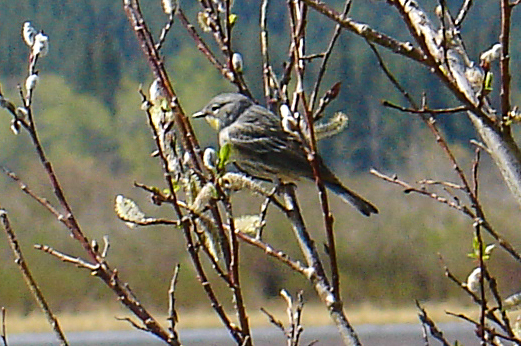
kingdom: Animalia
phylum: Chordata
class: Aves
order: Passeriformes
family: Parulidae
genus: Setophaga
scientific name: Setophaga coronata
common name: Myrtle warbler
